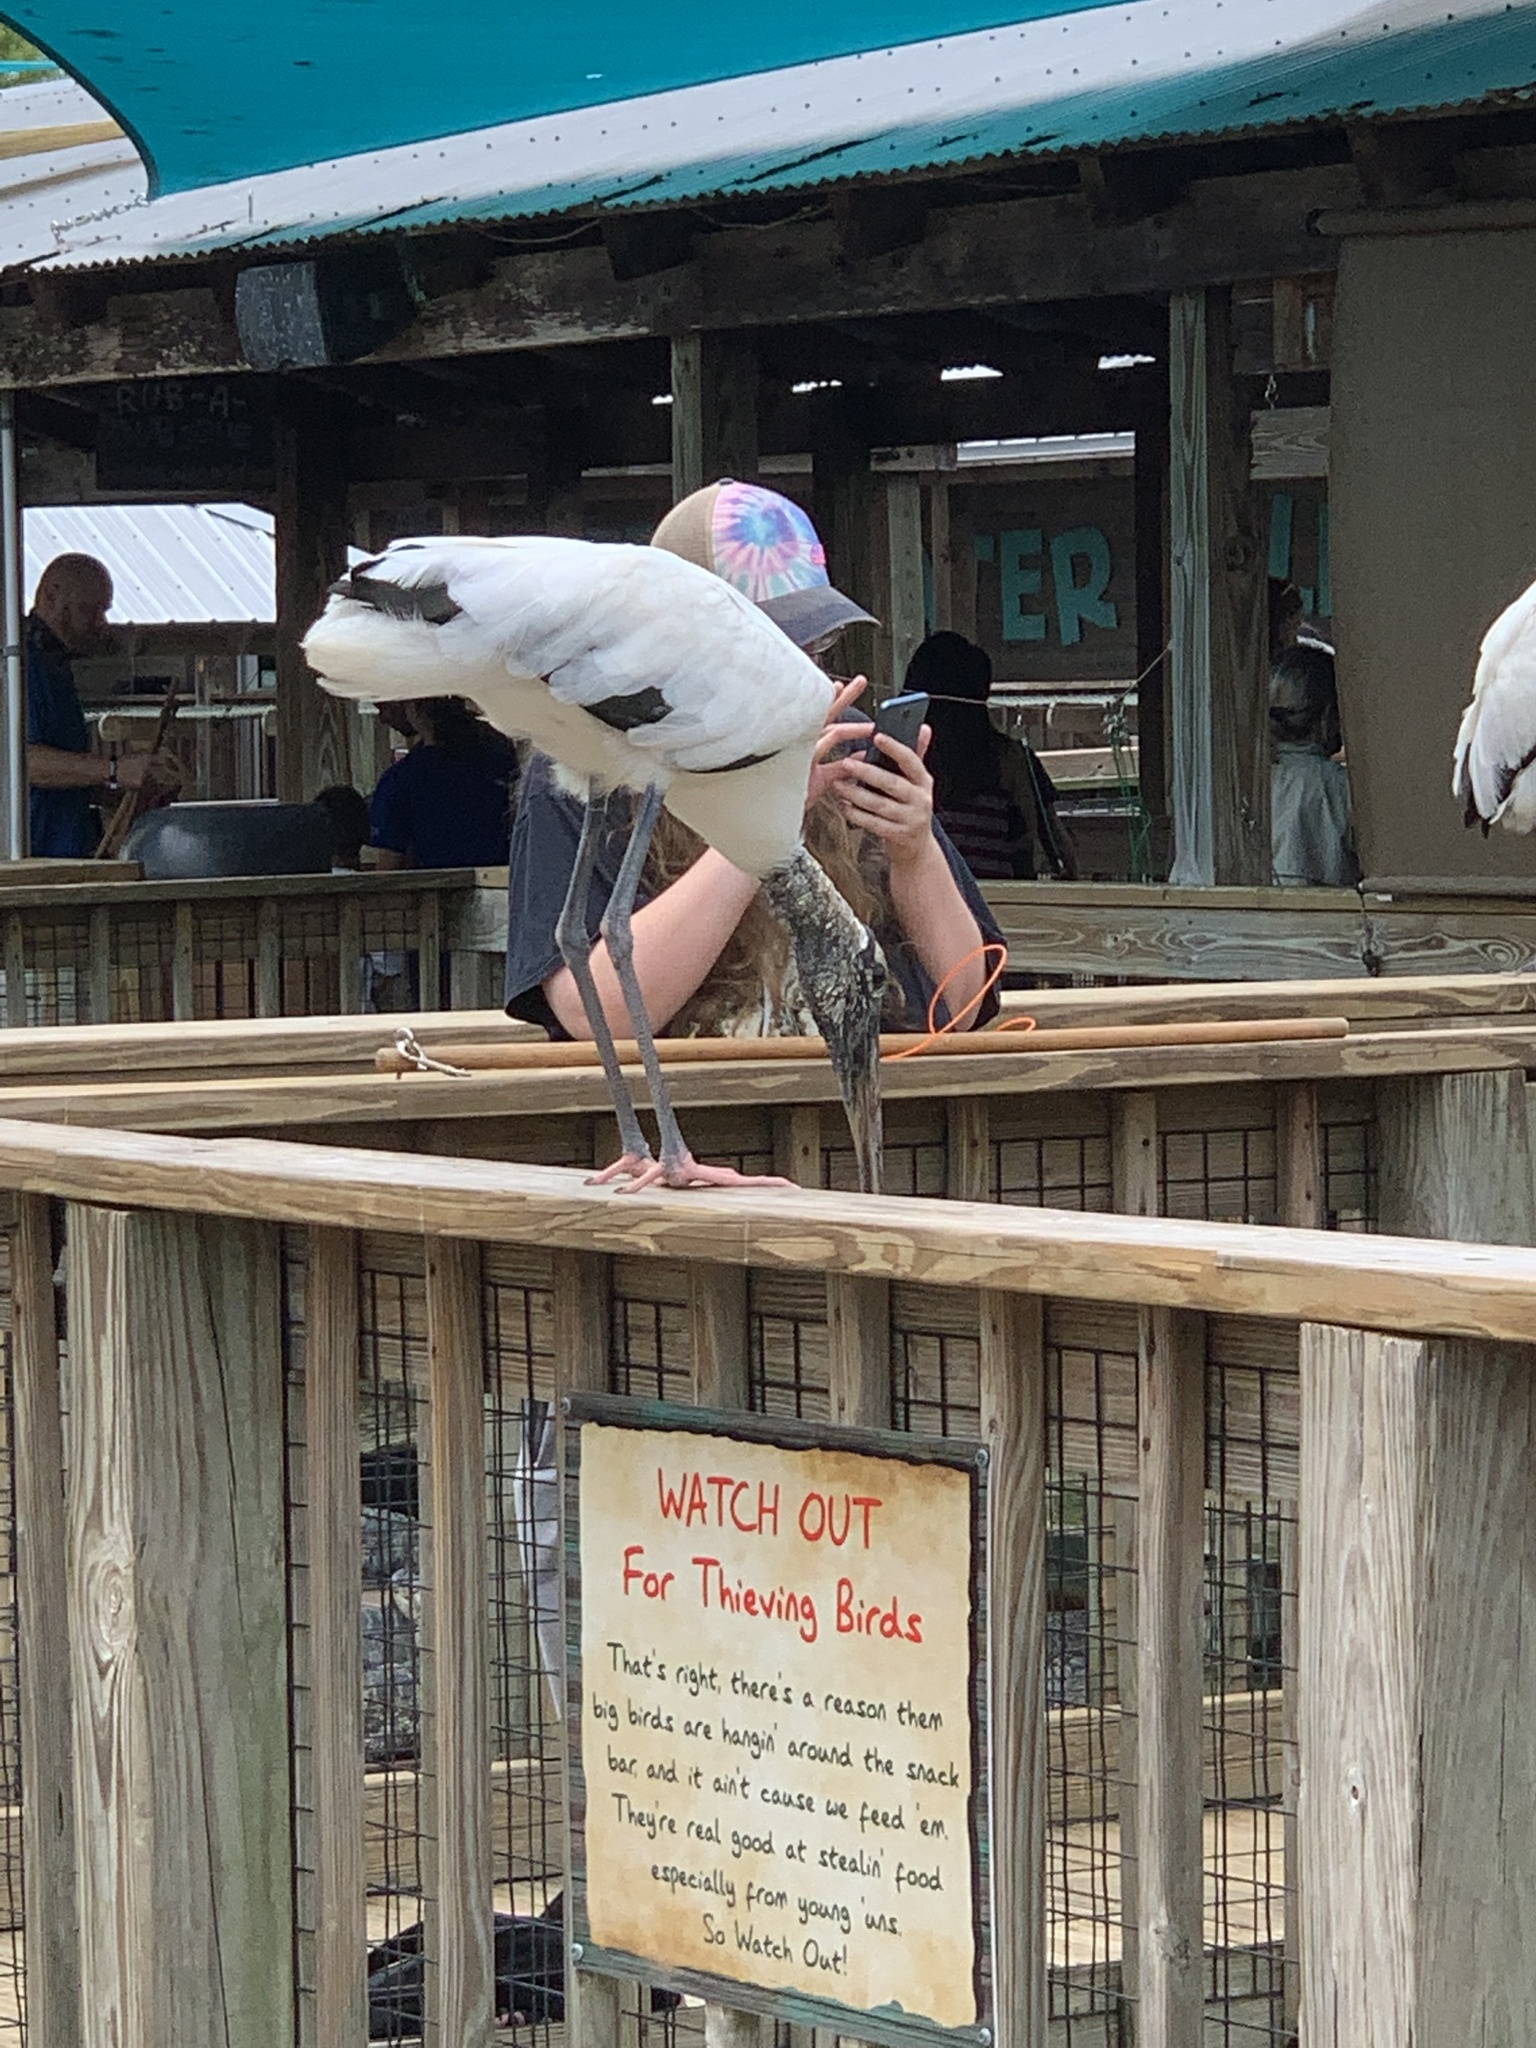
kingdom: Animalia
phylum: Chordata
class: Aves
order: Ciconiiformes
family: Ciconiidae
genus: Mycteria
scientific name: Mycteria americana
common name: Wood stork
